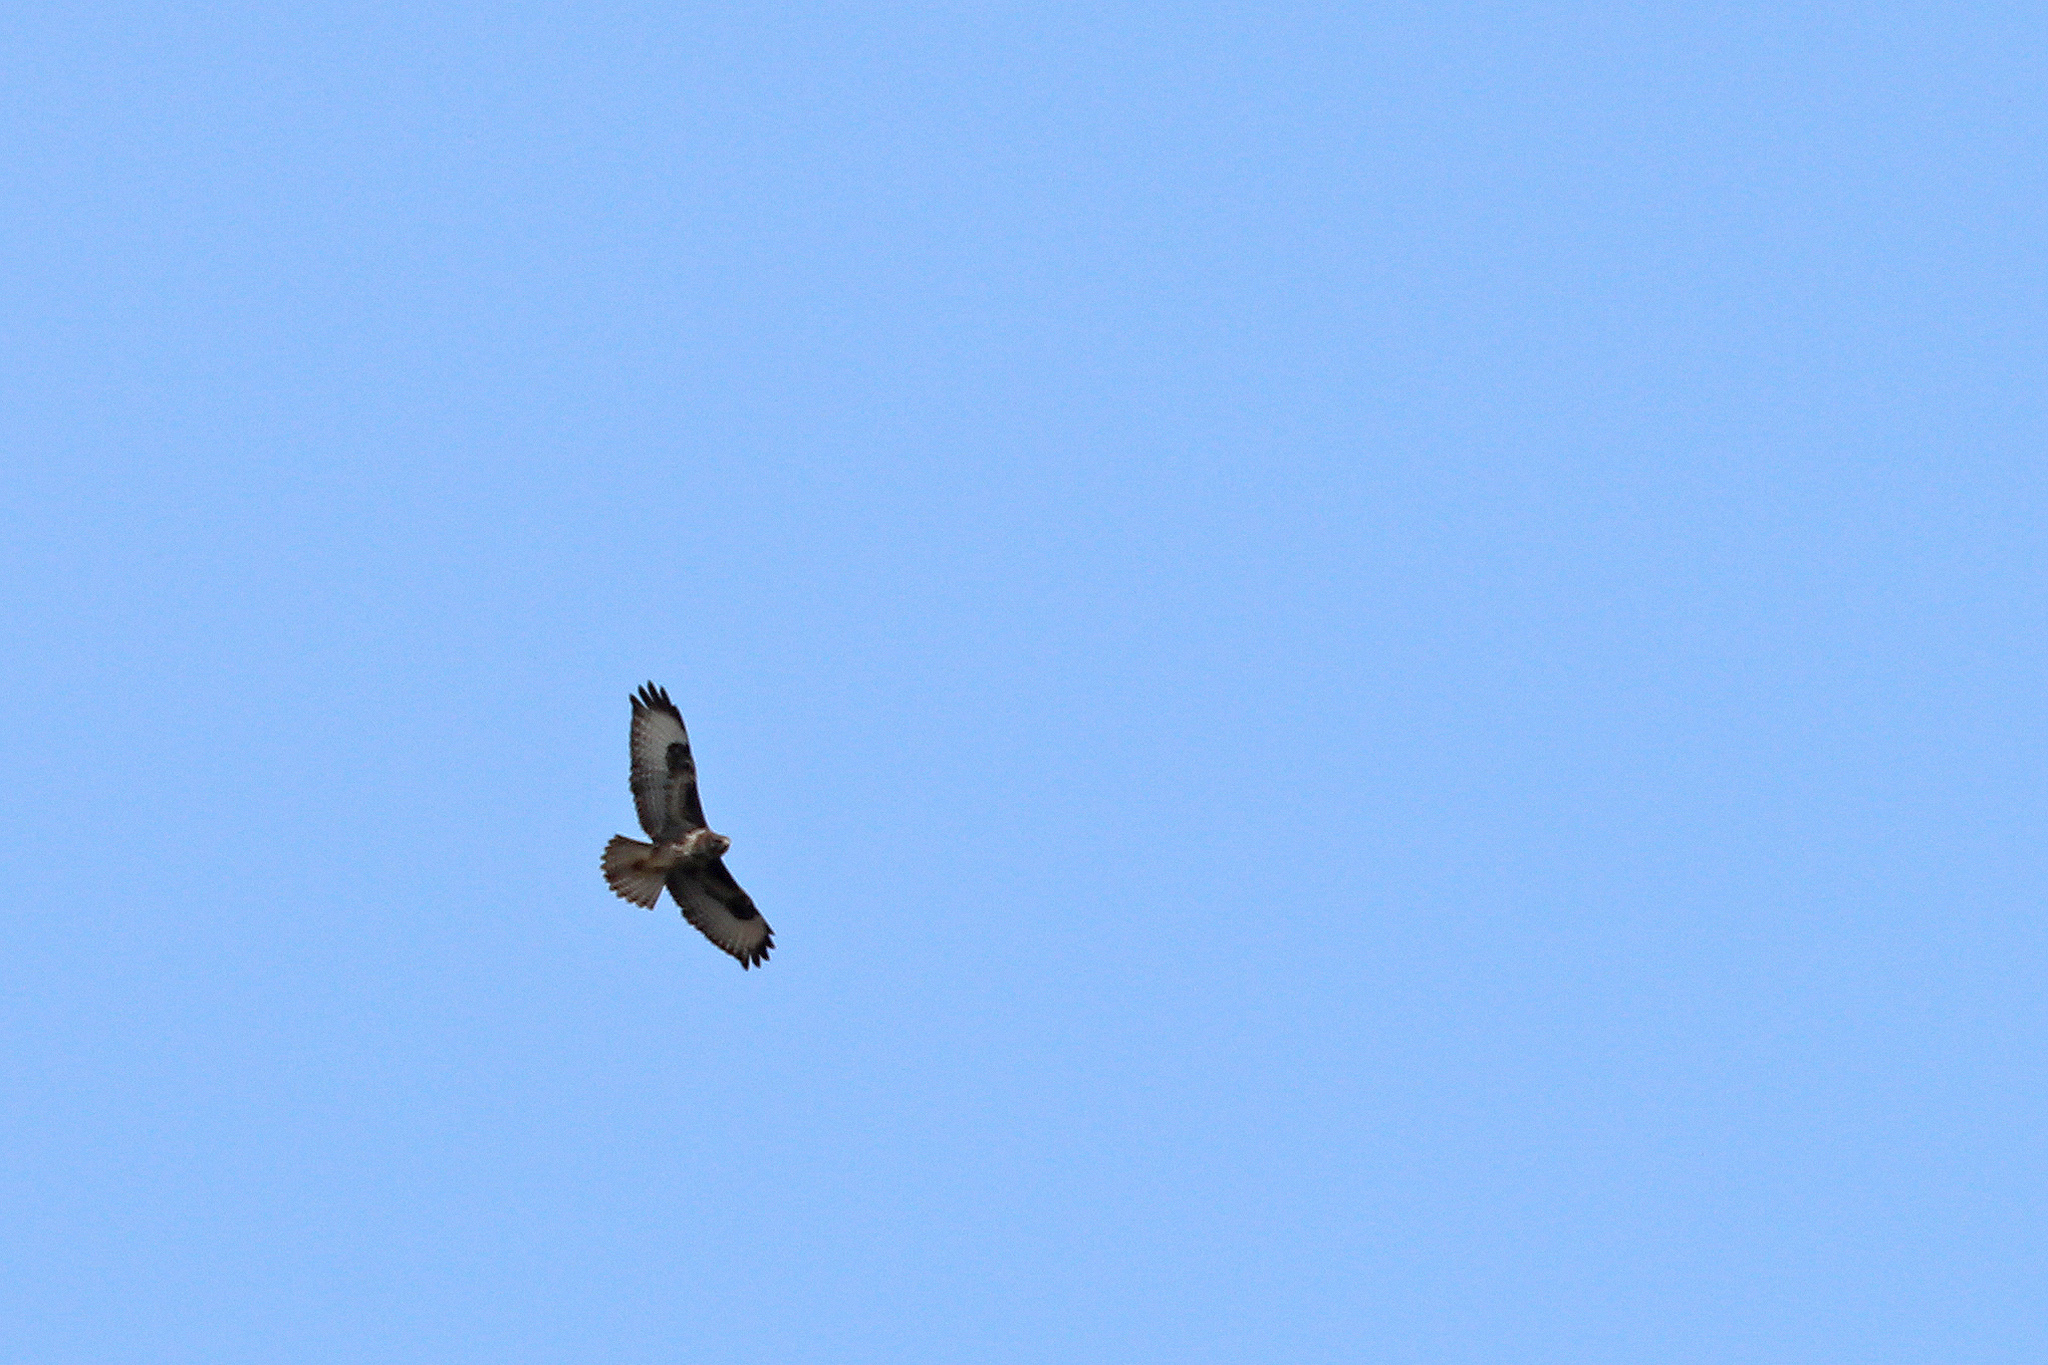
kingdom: Animalia
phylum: Chordata
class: Aves
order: Accipitriformes
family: Accipitridae
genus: Buteo
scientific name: Buteo buteo
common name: Common buzzard
